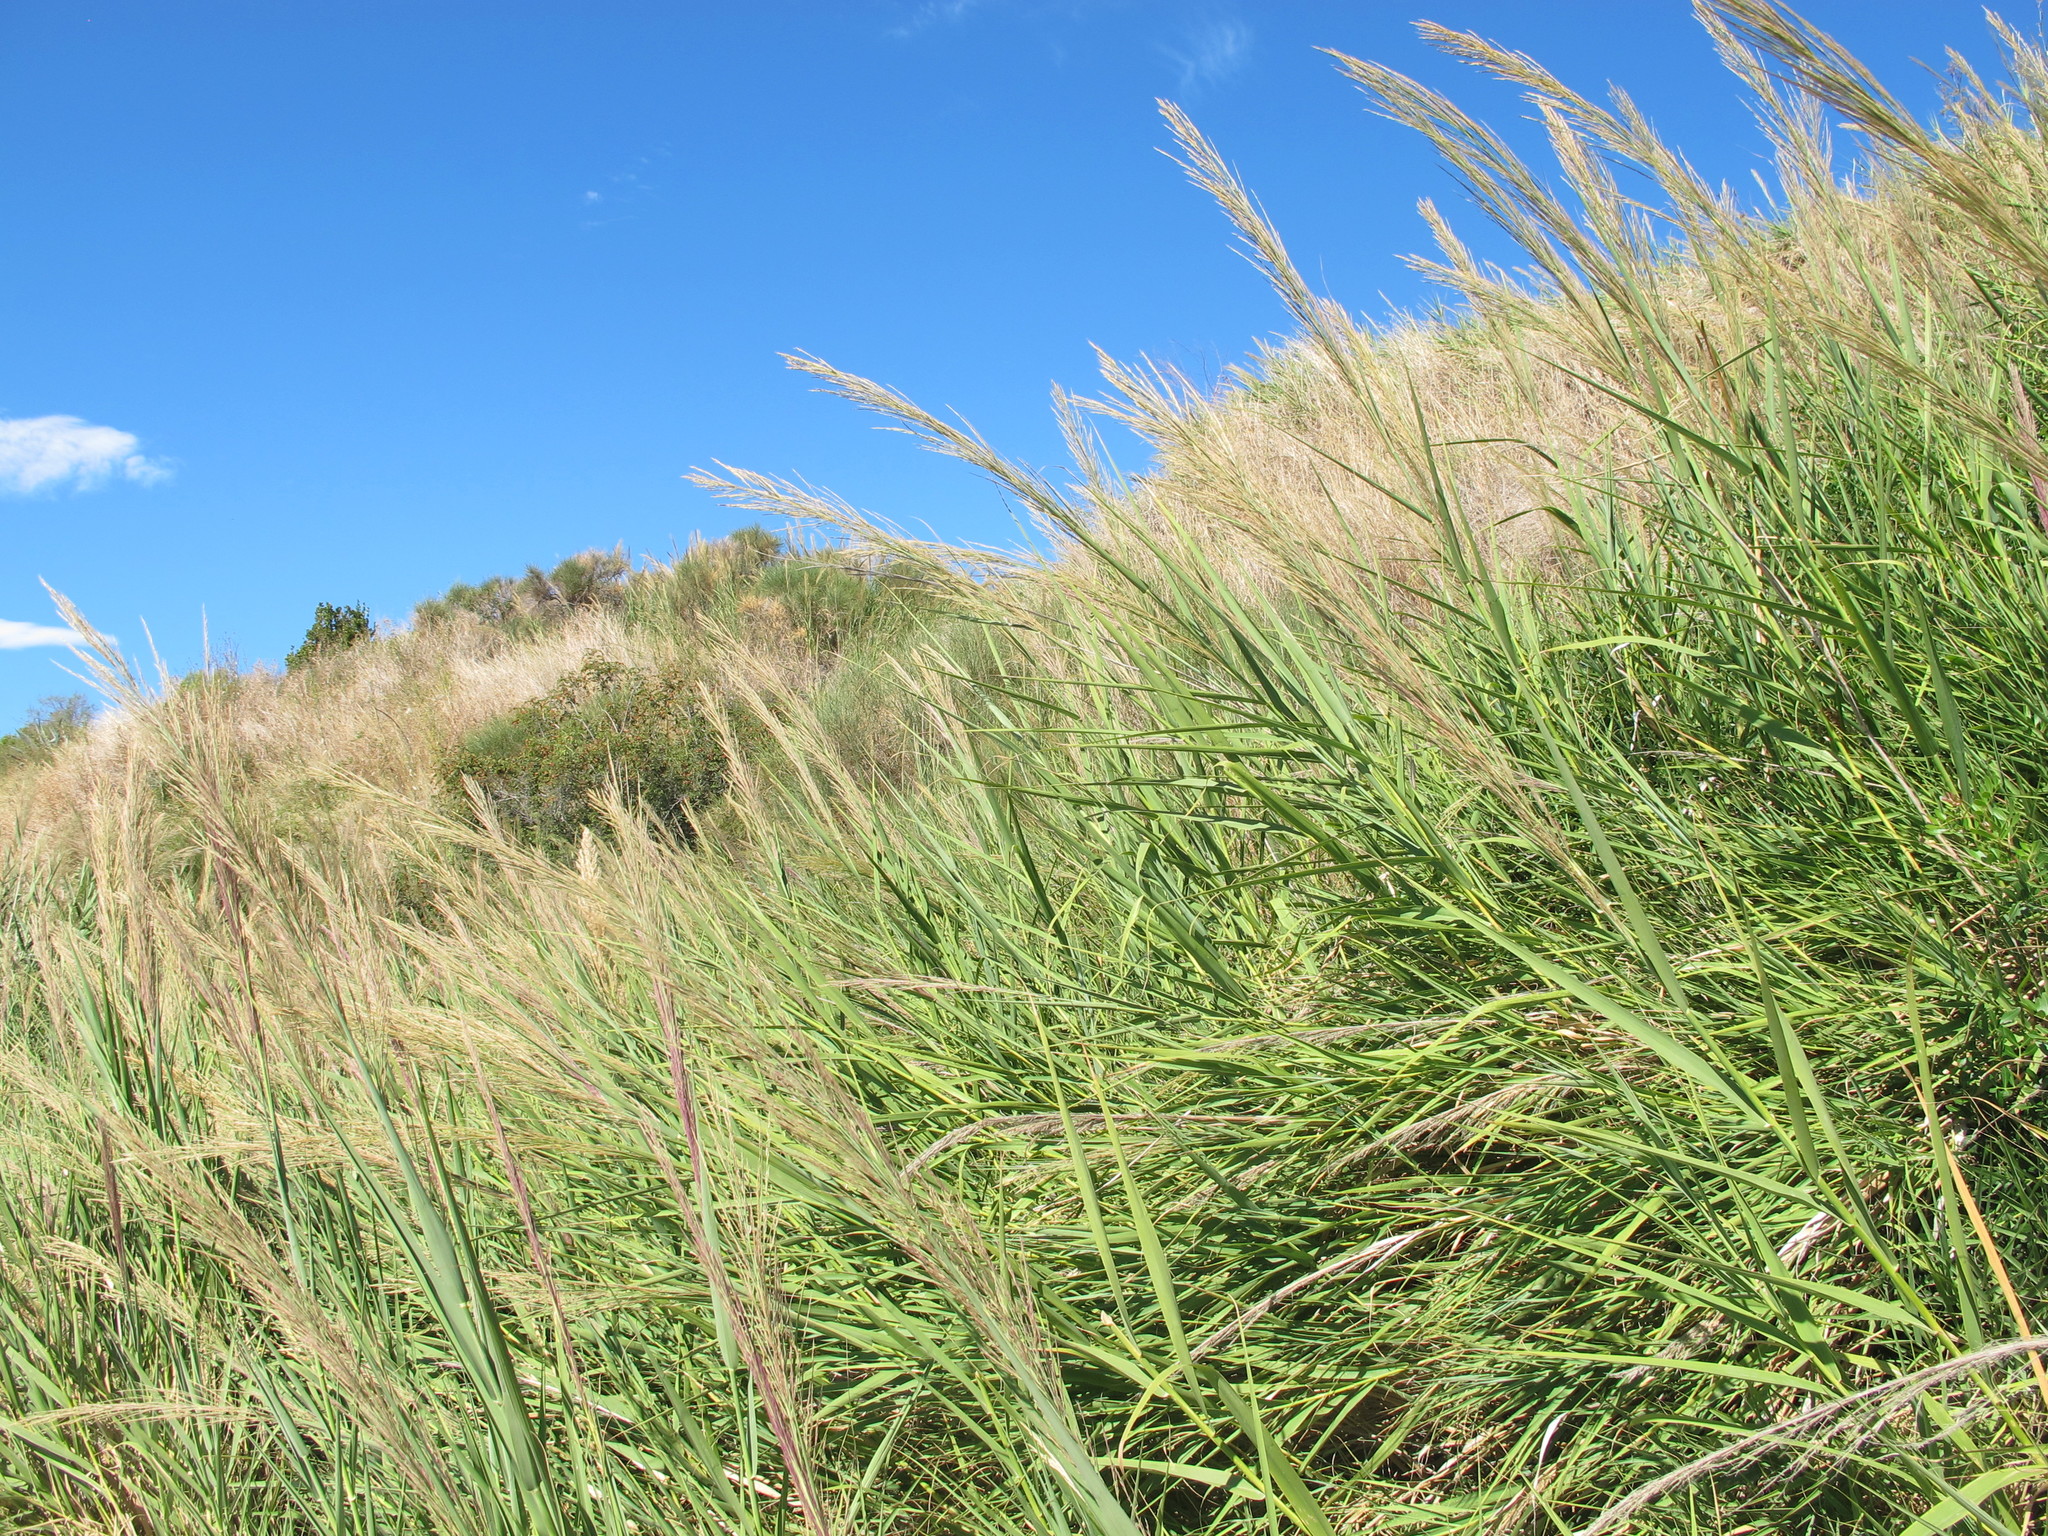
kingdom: Plantae
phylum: Tracheophyta
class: Liliopsida
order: Poales
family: Poaceae
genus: Arundo
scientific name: Arundo plinii
